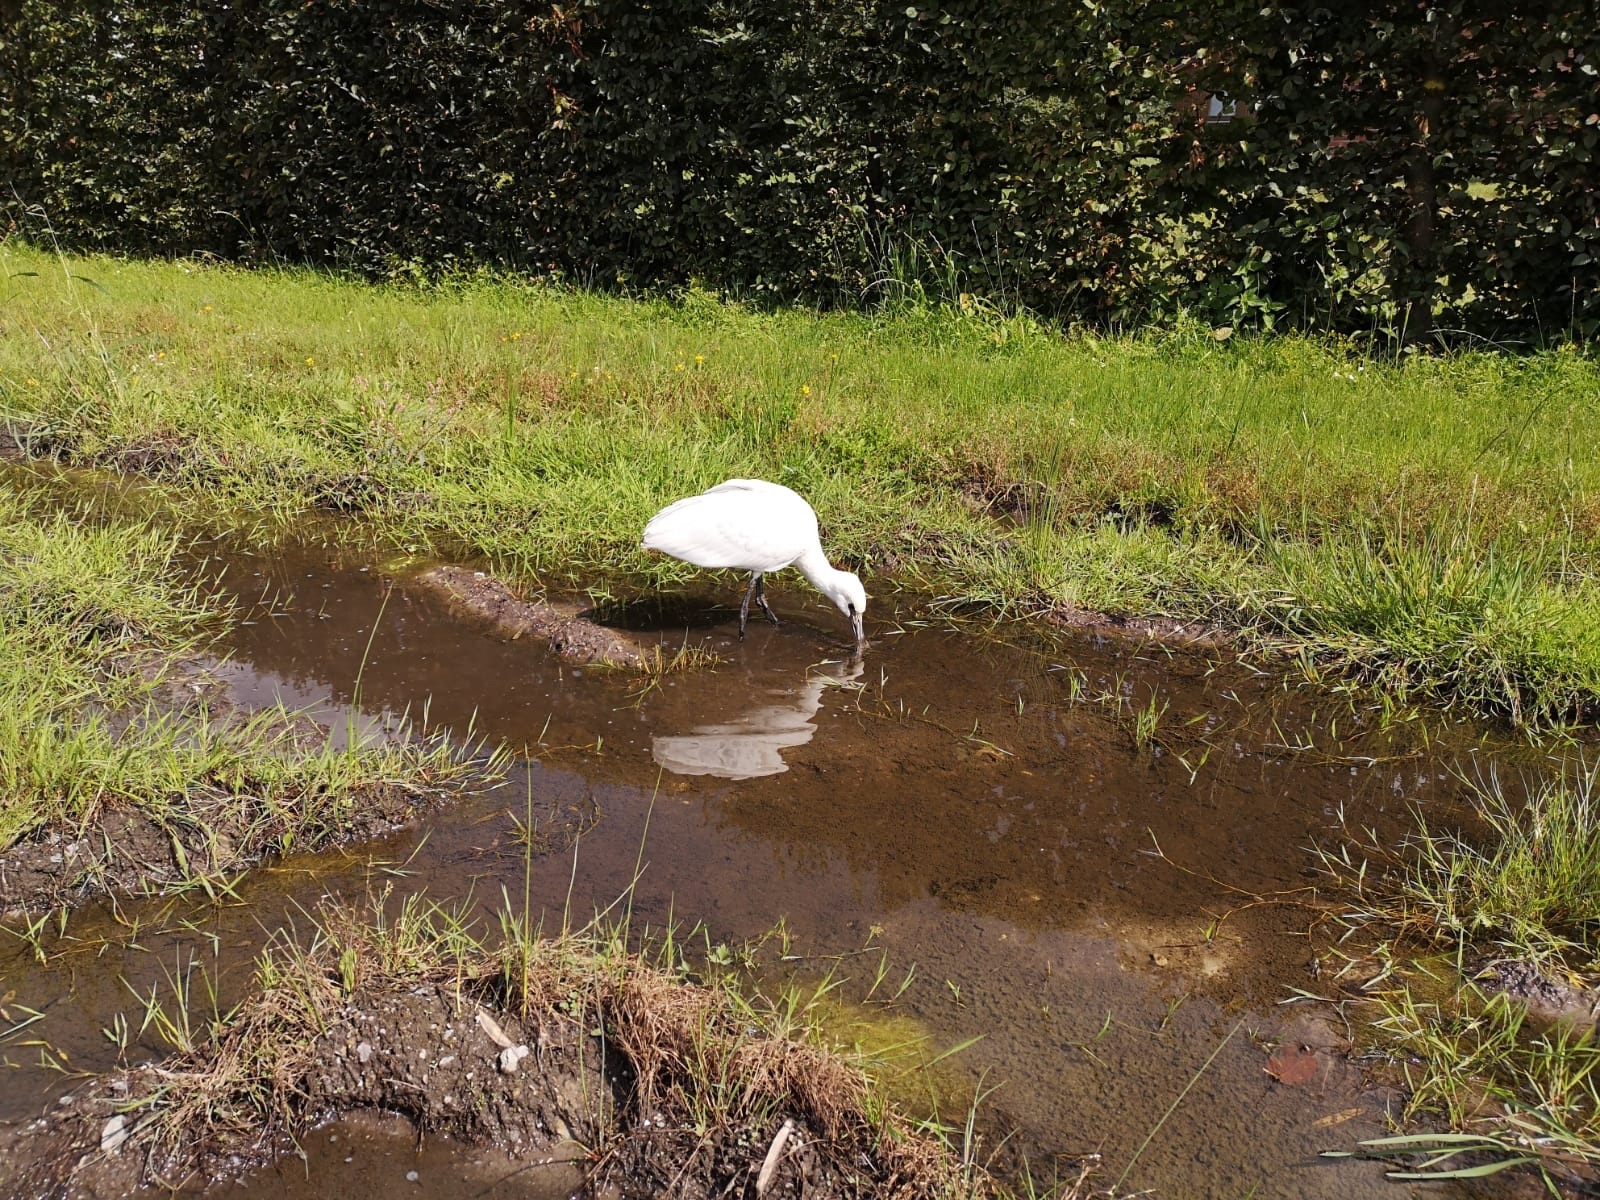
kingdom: Animalia
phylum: Chordata
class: Aves
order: Pelecaniformes
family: Threskiornithidae
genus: Platalea
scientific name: Platalea leucorodia
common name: Eurasian spoonbill
